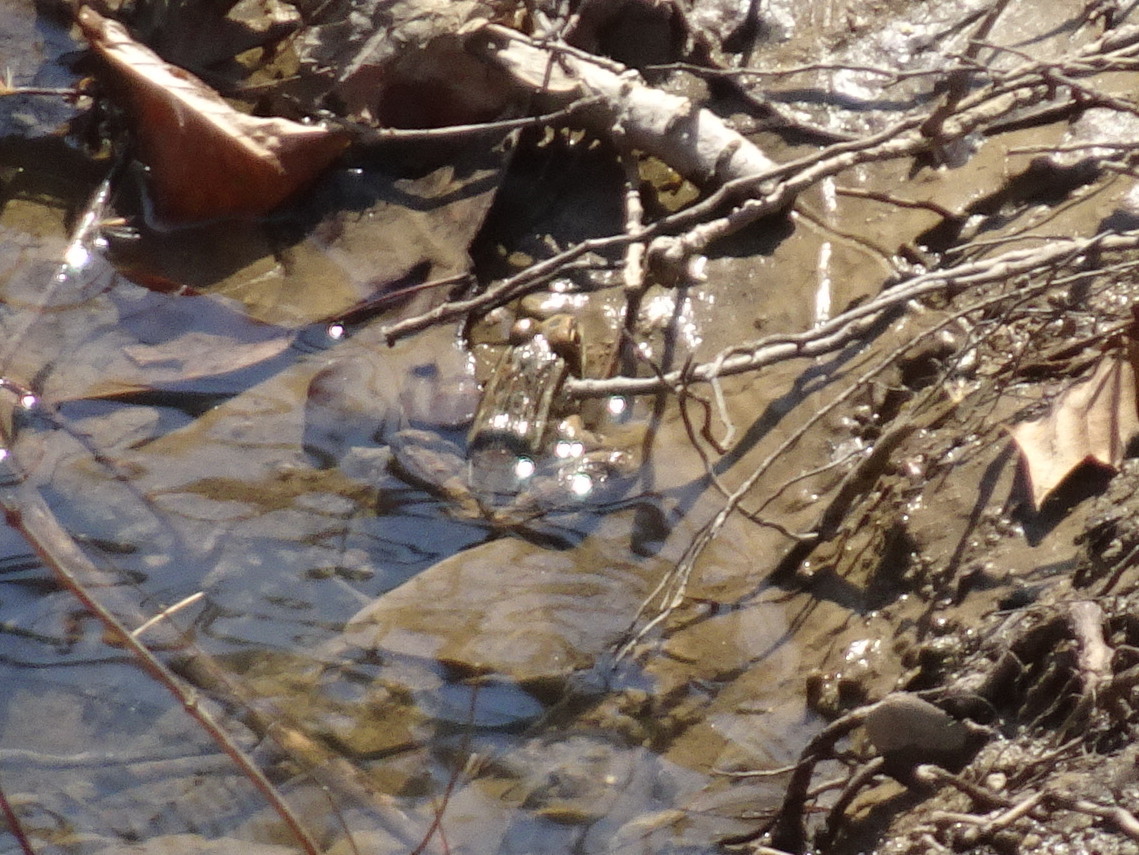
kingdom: Animalia
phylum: Chordata
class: Amphibia
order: Anura
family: Ranidae
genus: Lithobates
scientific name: Lithobates blairi
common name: Plains leopard frog
